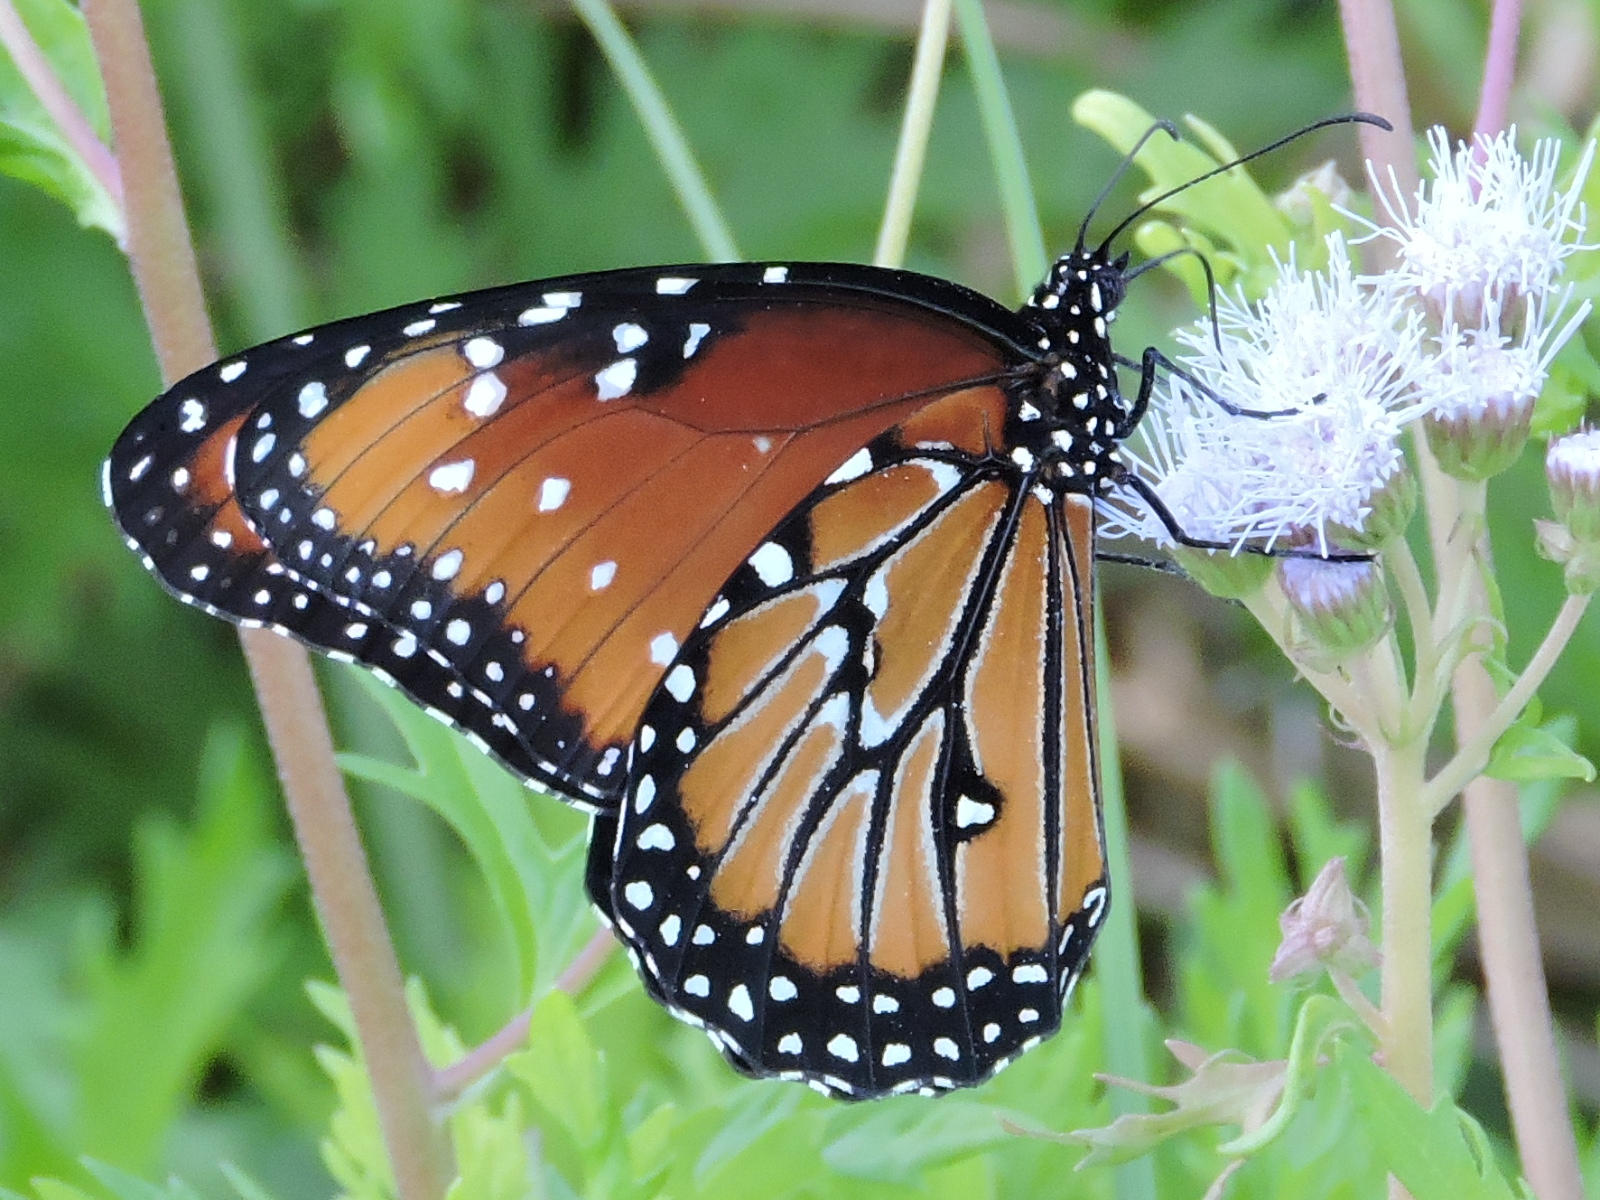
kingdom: Animalia
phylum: Arthropoda
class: Insecta
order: Lepidoptera
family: Nymphalidae
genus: Danaus
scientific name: Danaus gilippus
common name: Queen
